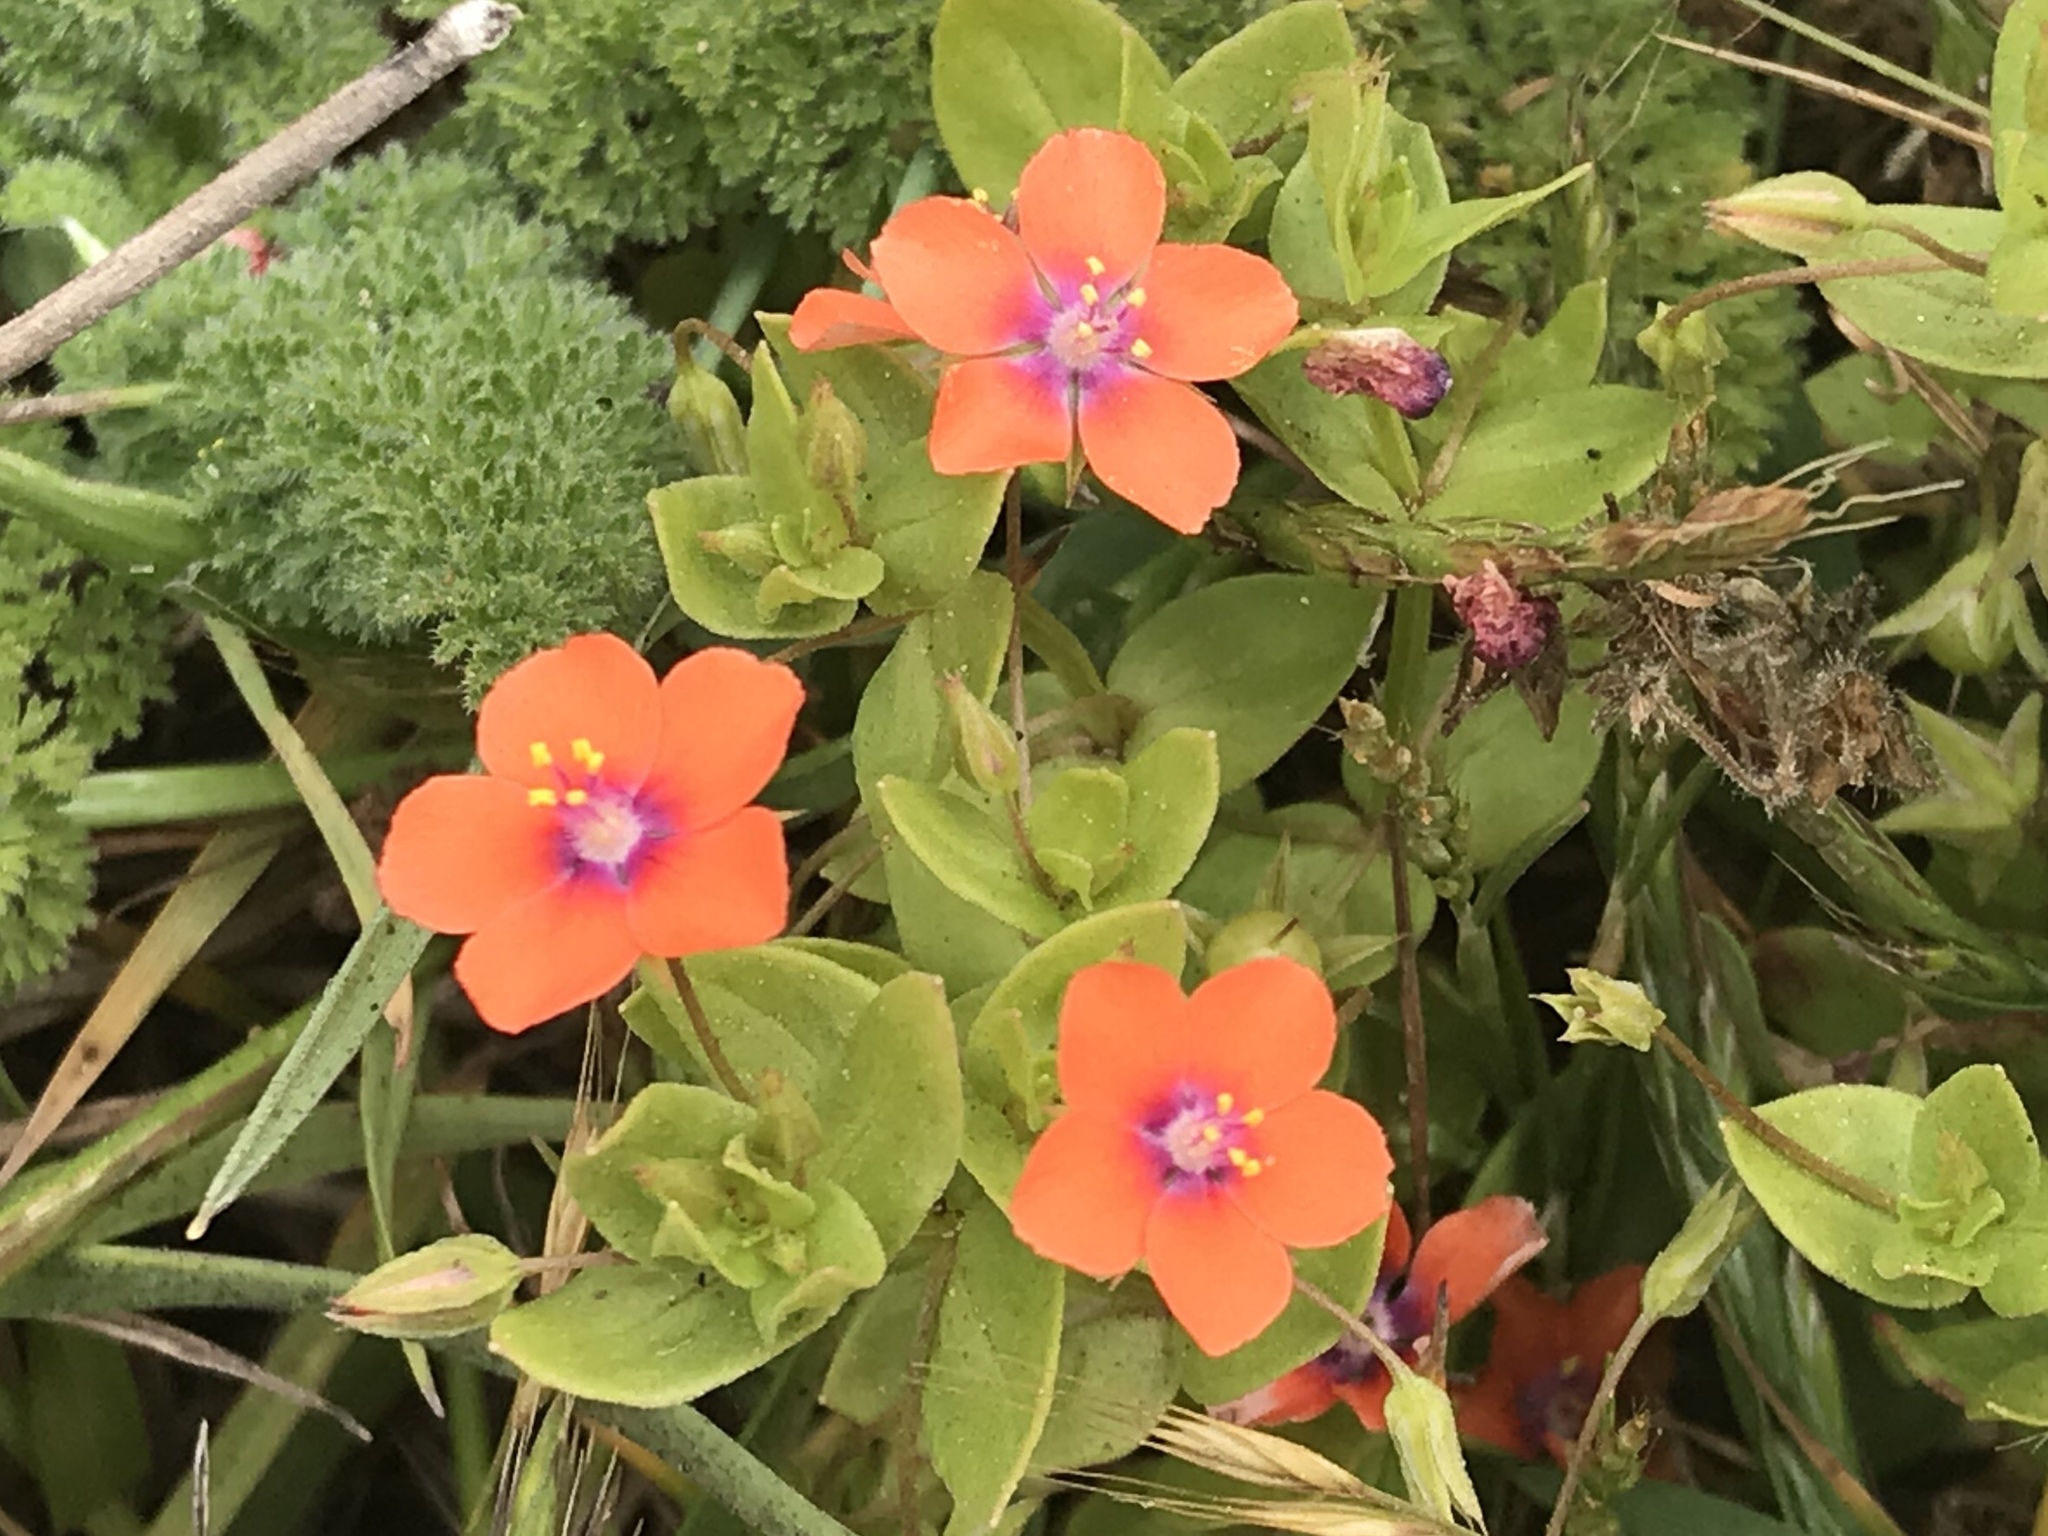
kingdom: Plantae
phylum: Tracheophyta
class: Magnoliopsida
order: Ericales
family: Primulaceae
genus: Lysimachia
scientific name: Lysimachia arvensis
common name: Scarlet pimpernel
